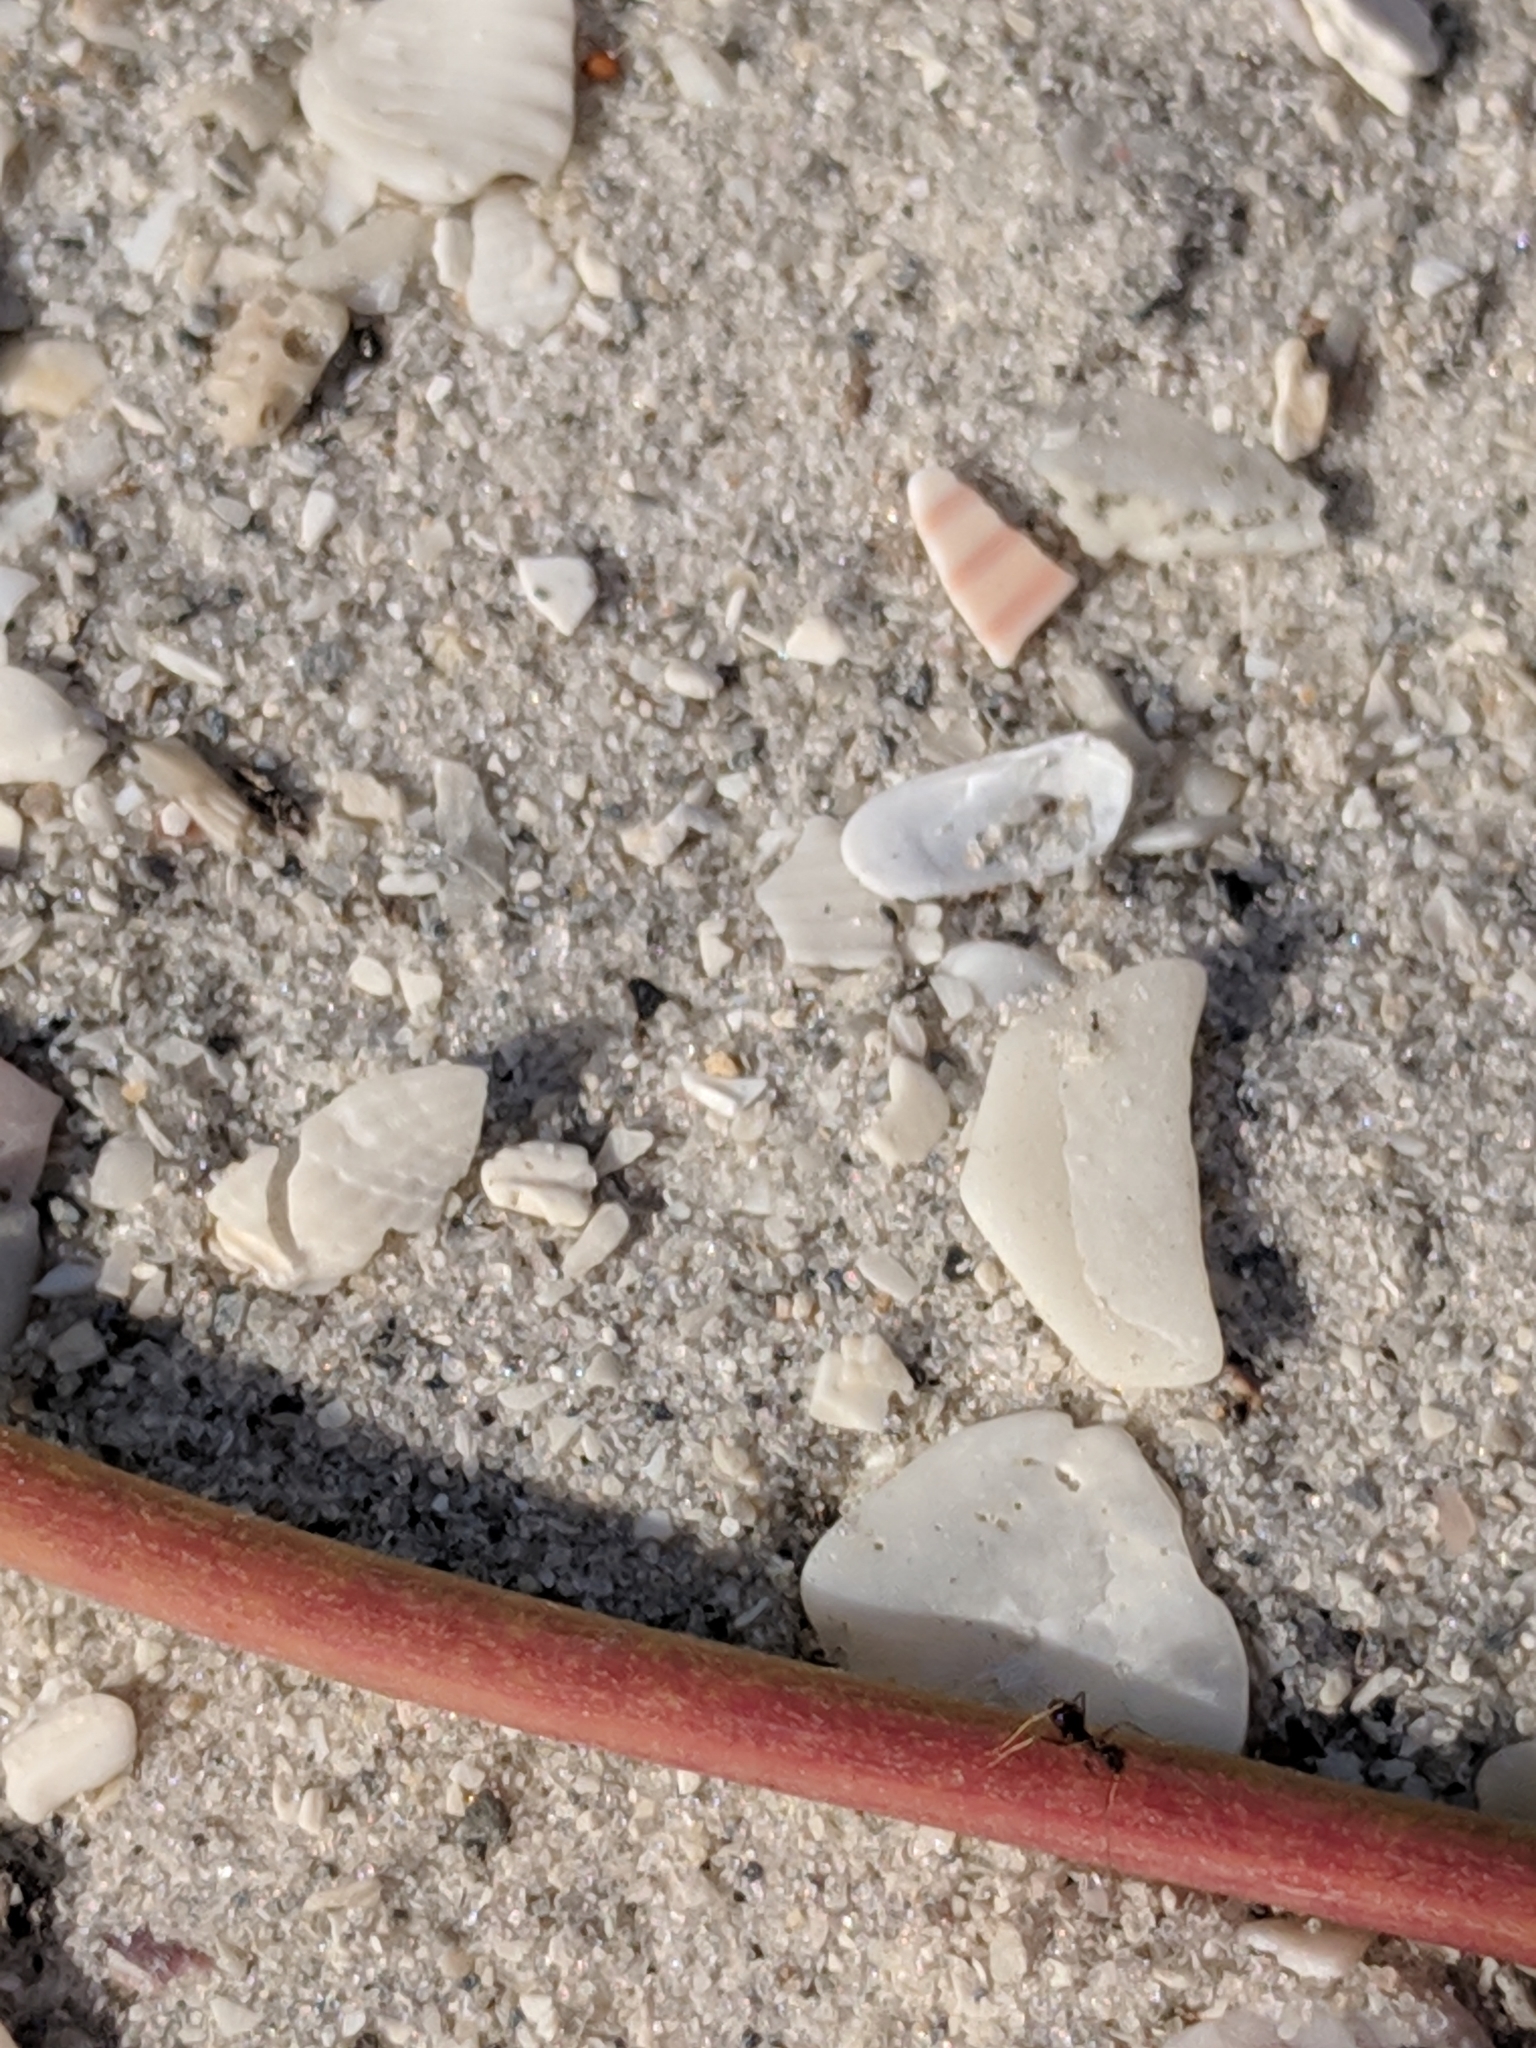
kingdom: Animalia
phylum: Arthropoda
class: Insecta
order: Hymenoptera
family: Formicidae
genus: Paratrechina
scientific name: Paratrechina longicornis
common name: Longhorned crazy ant
